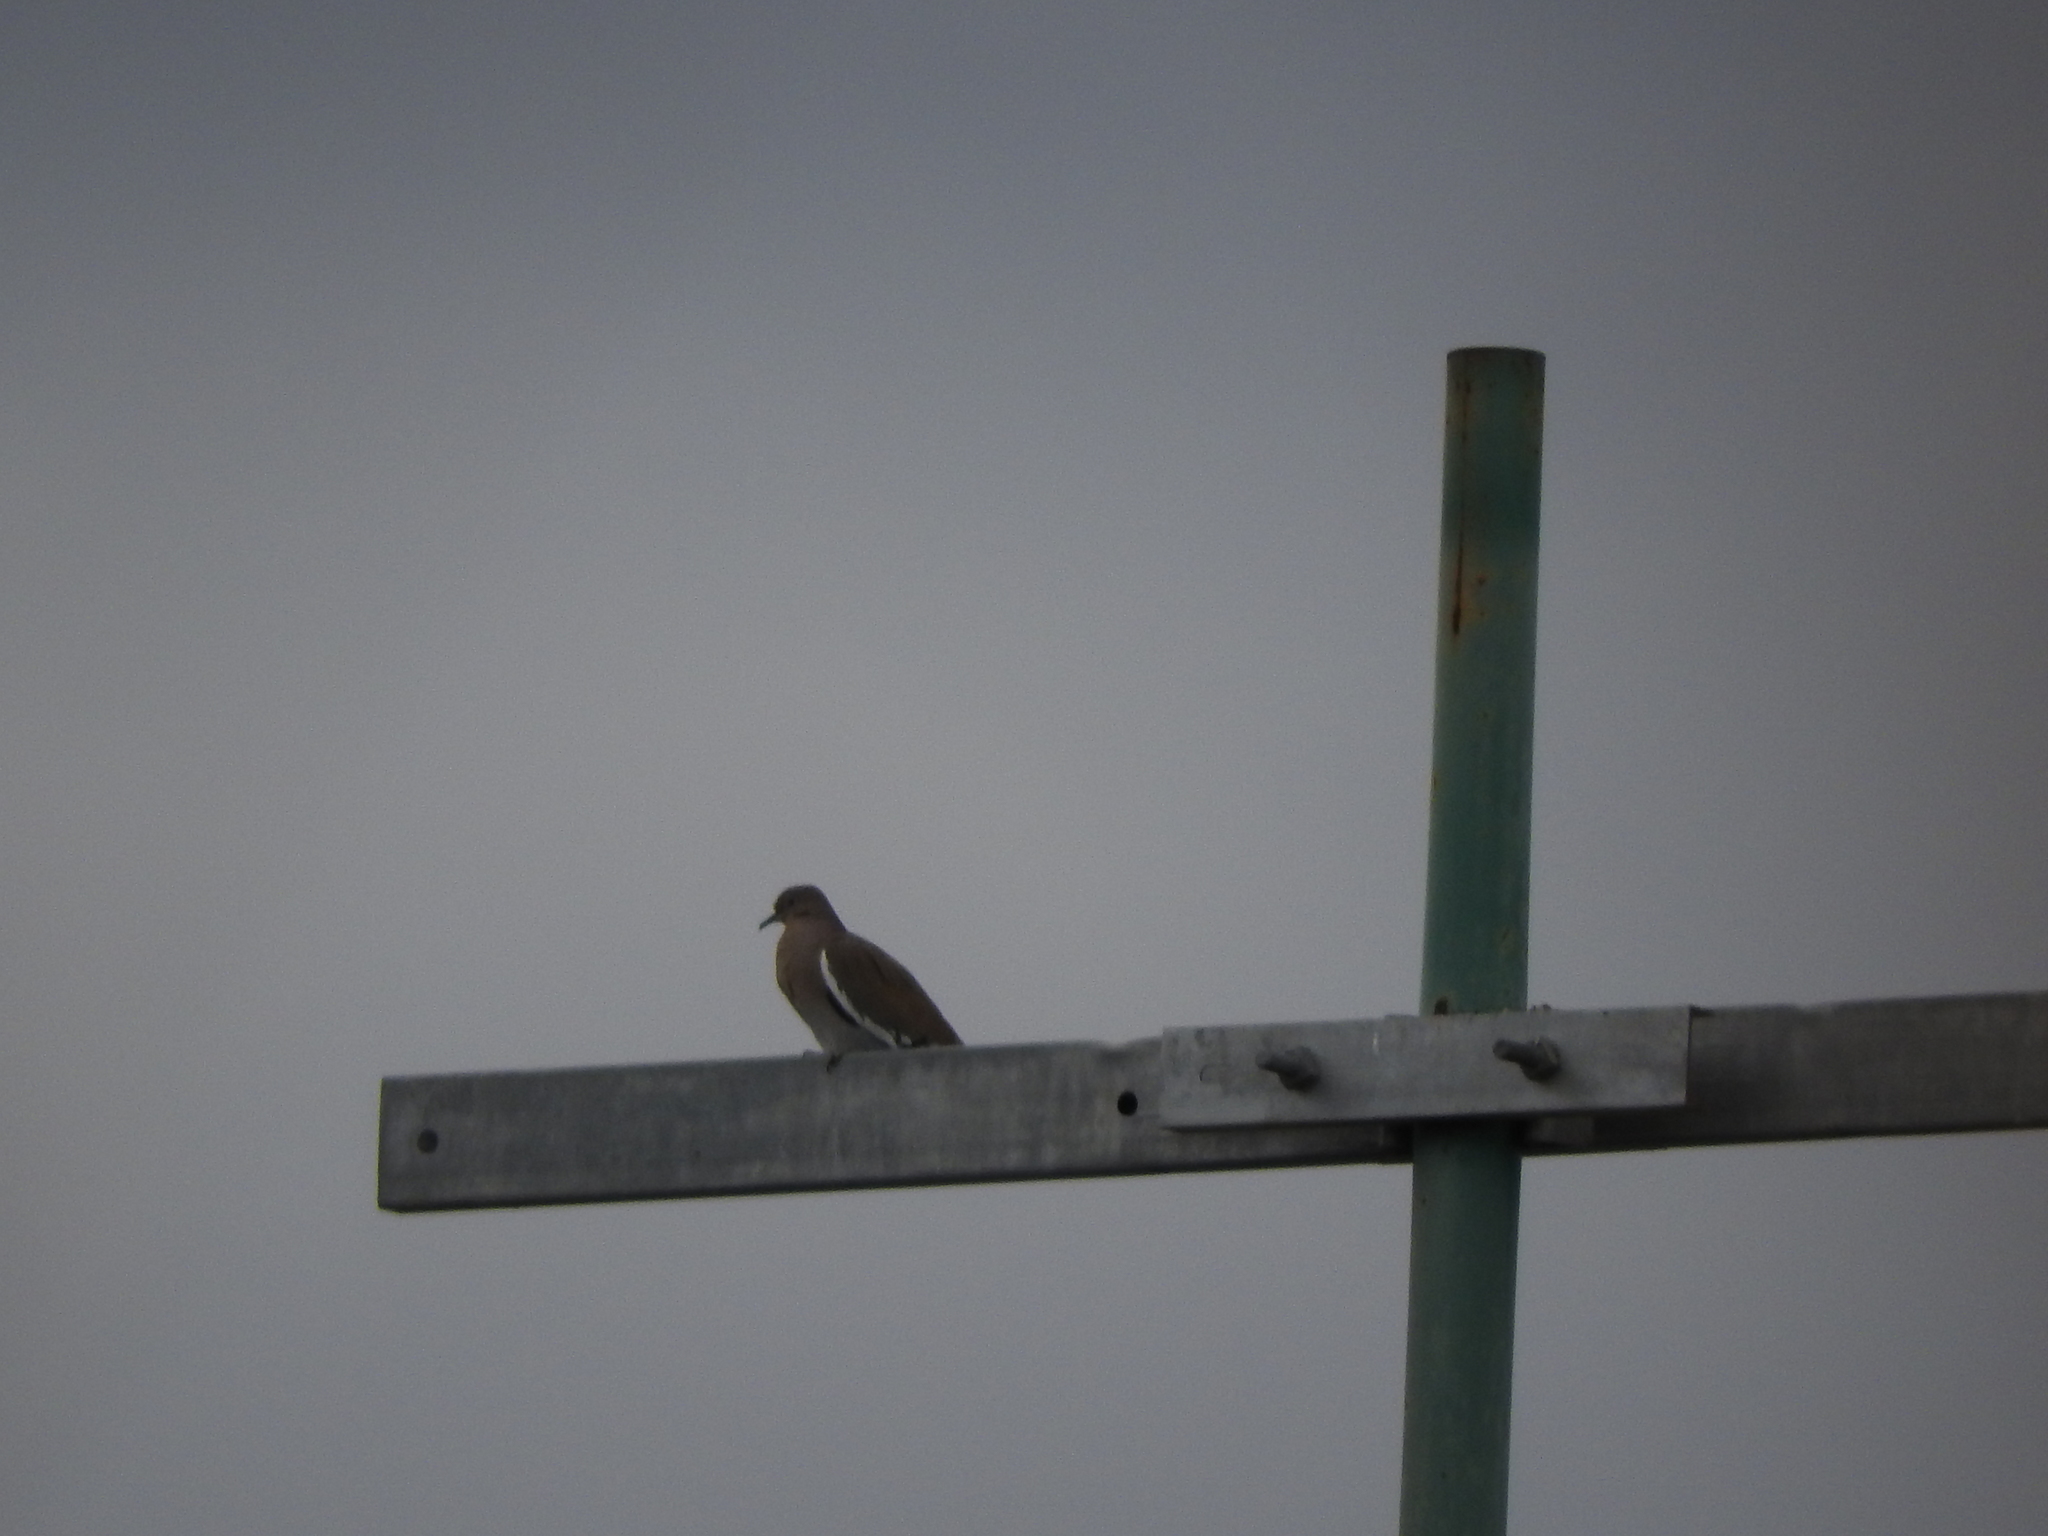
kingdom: Animalia
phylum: Chordata
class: Aves
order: Columbiformes
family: Columbidae
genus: Zenaida
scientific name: Zenaida asiatica
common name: White-winged dove
